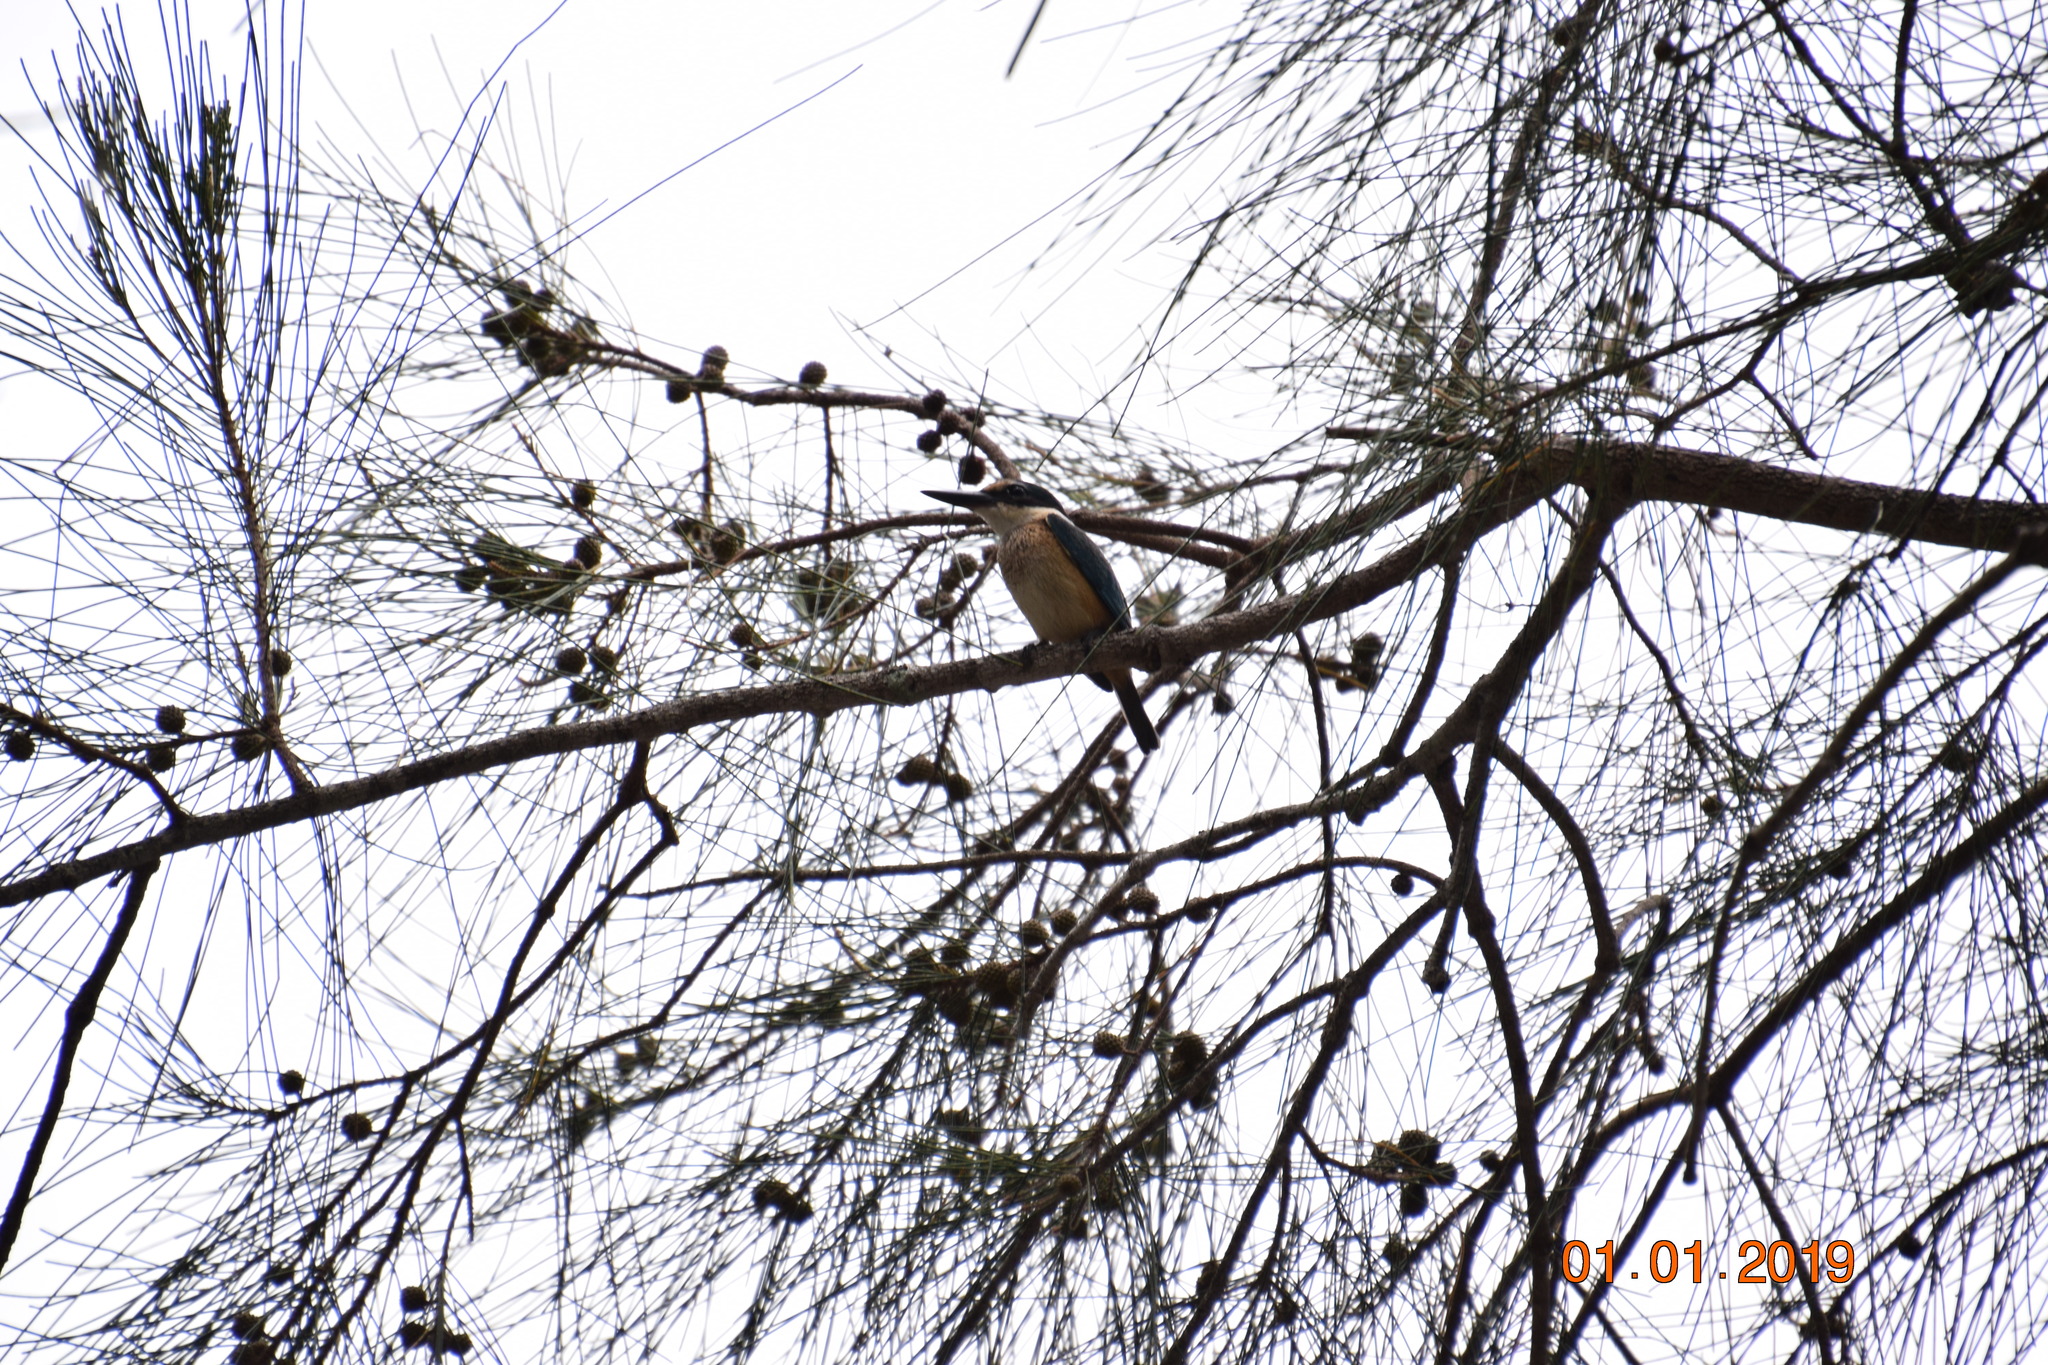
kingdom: Animalia
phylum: Chordata
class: Aves
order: Coraciiformes
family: Alcedinidae
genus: Todiramphus
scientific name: Todiramphus sanctus
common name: Sacred kingfisher
